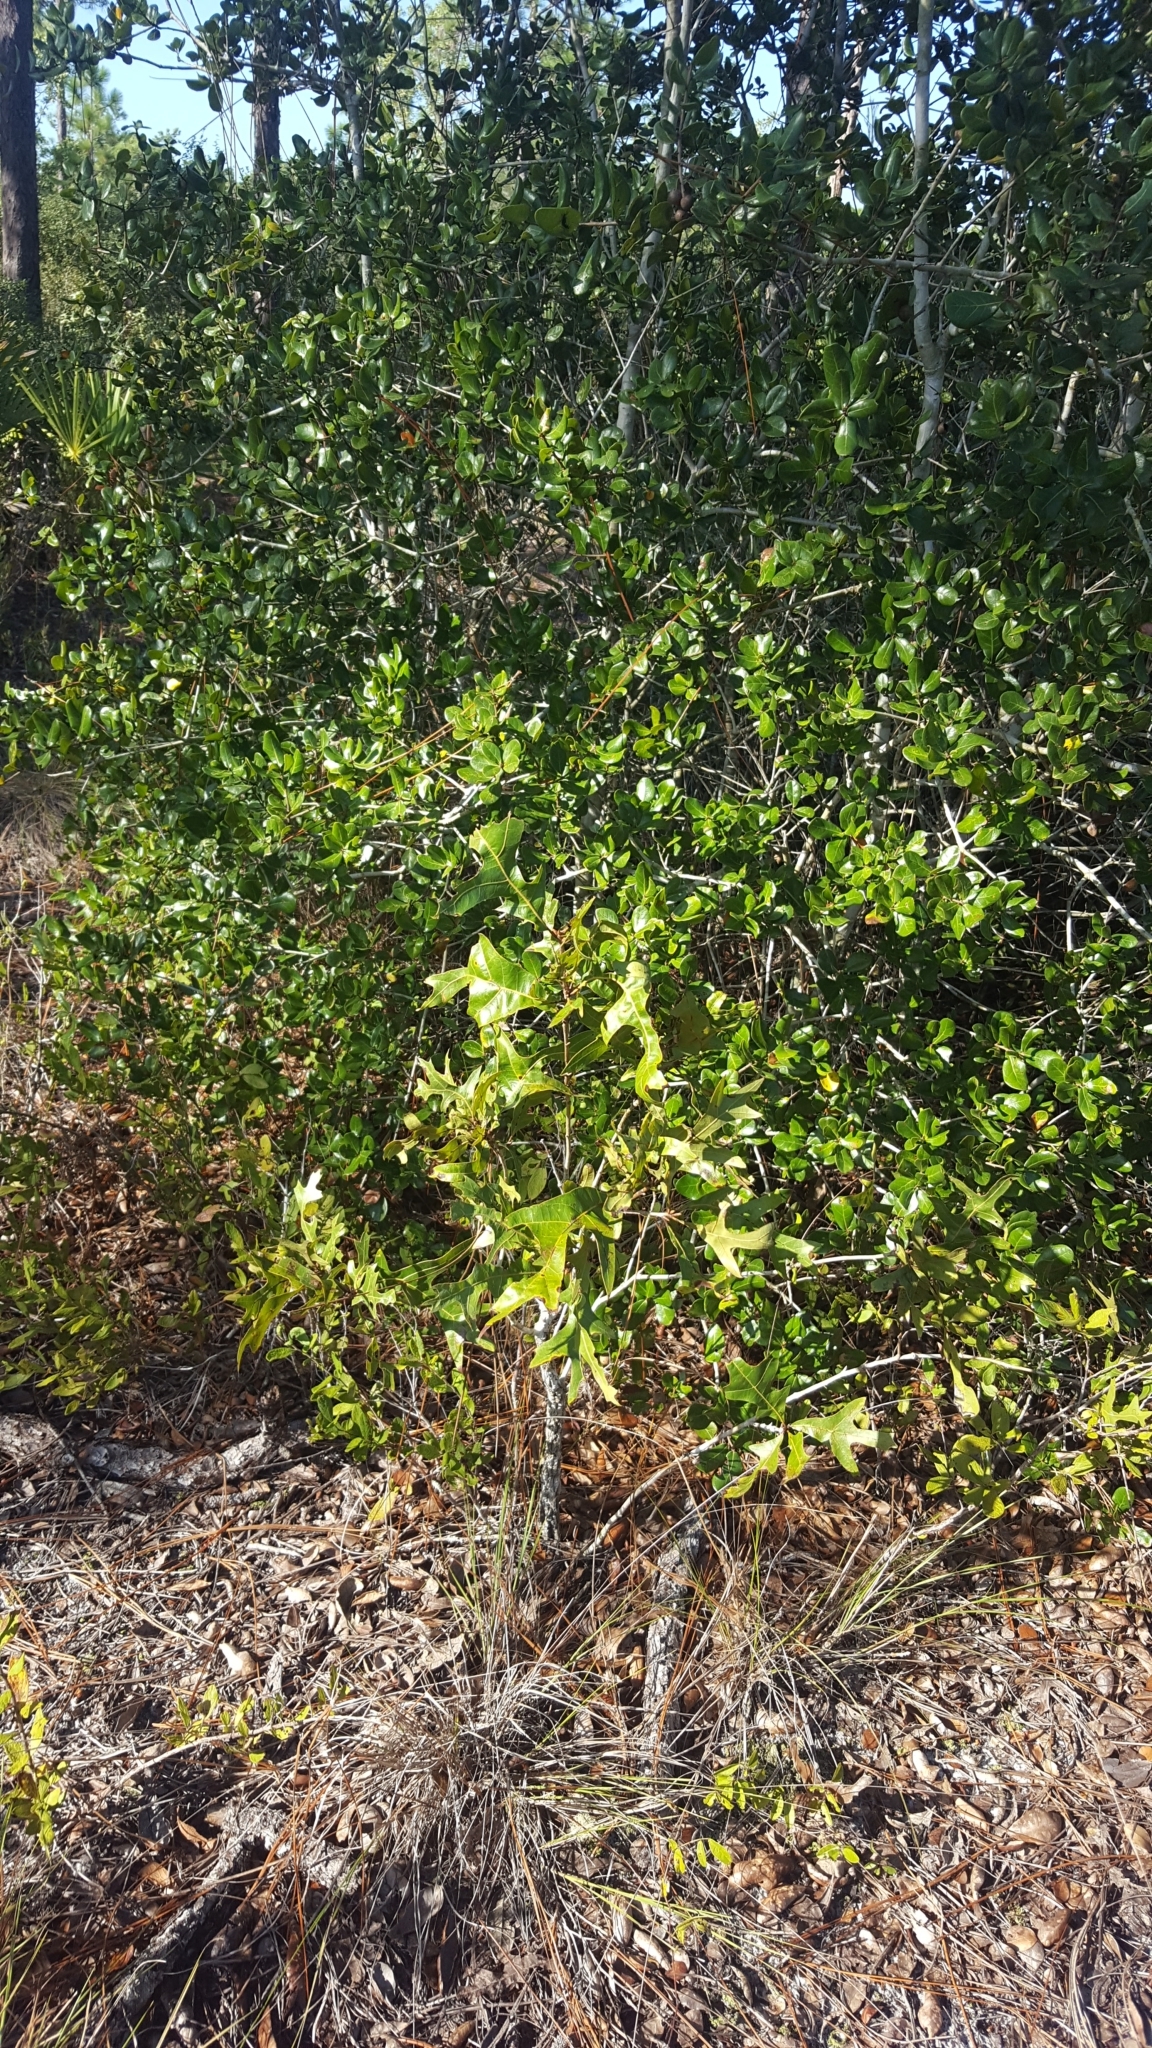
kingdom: Plantae
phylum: Tracheophyta
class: Magnoliopsida
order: Fagales
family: Fagaceae
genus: Quercus
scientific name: Quercus laevis
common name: Turkey oak
